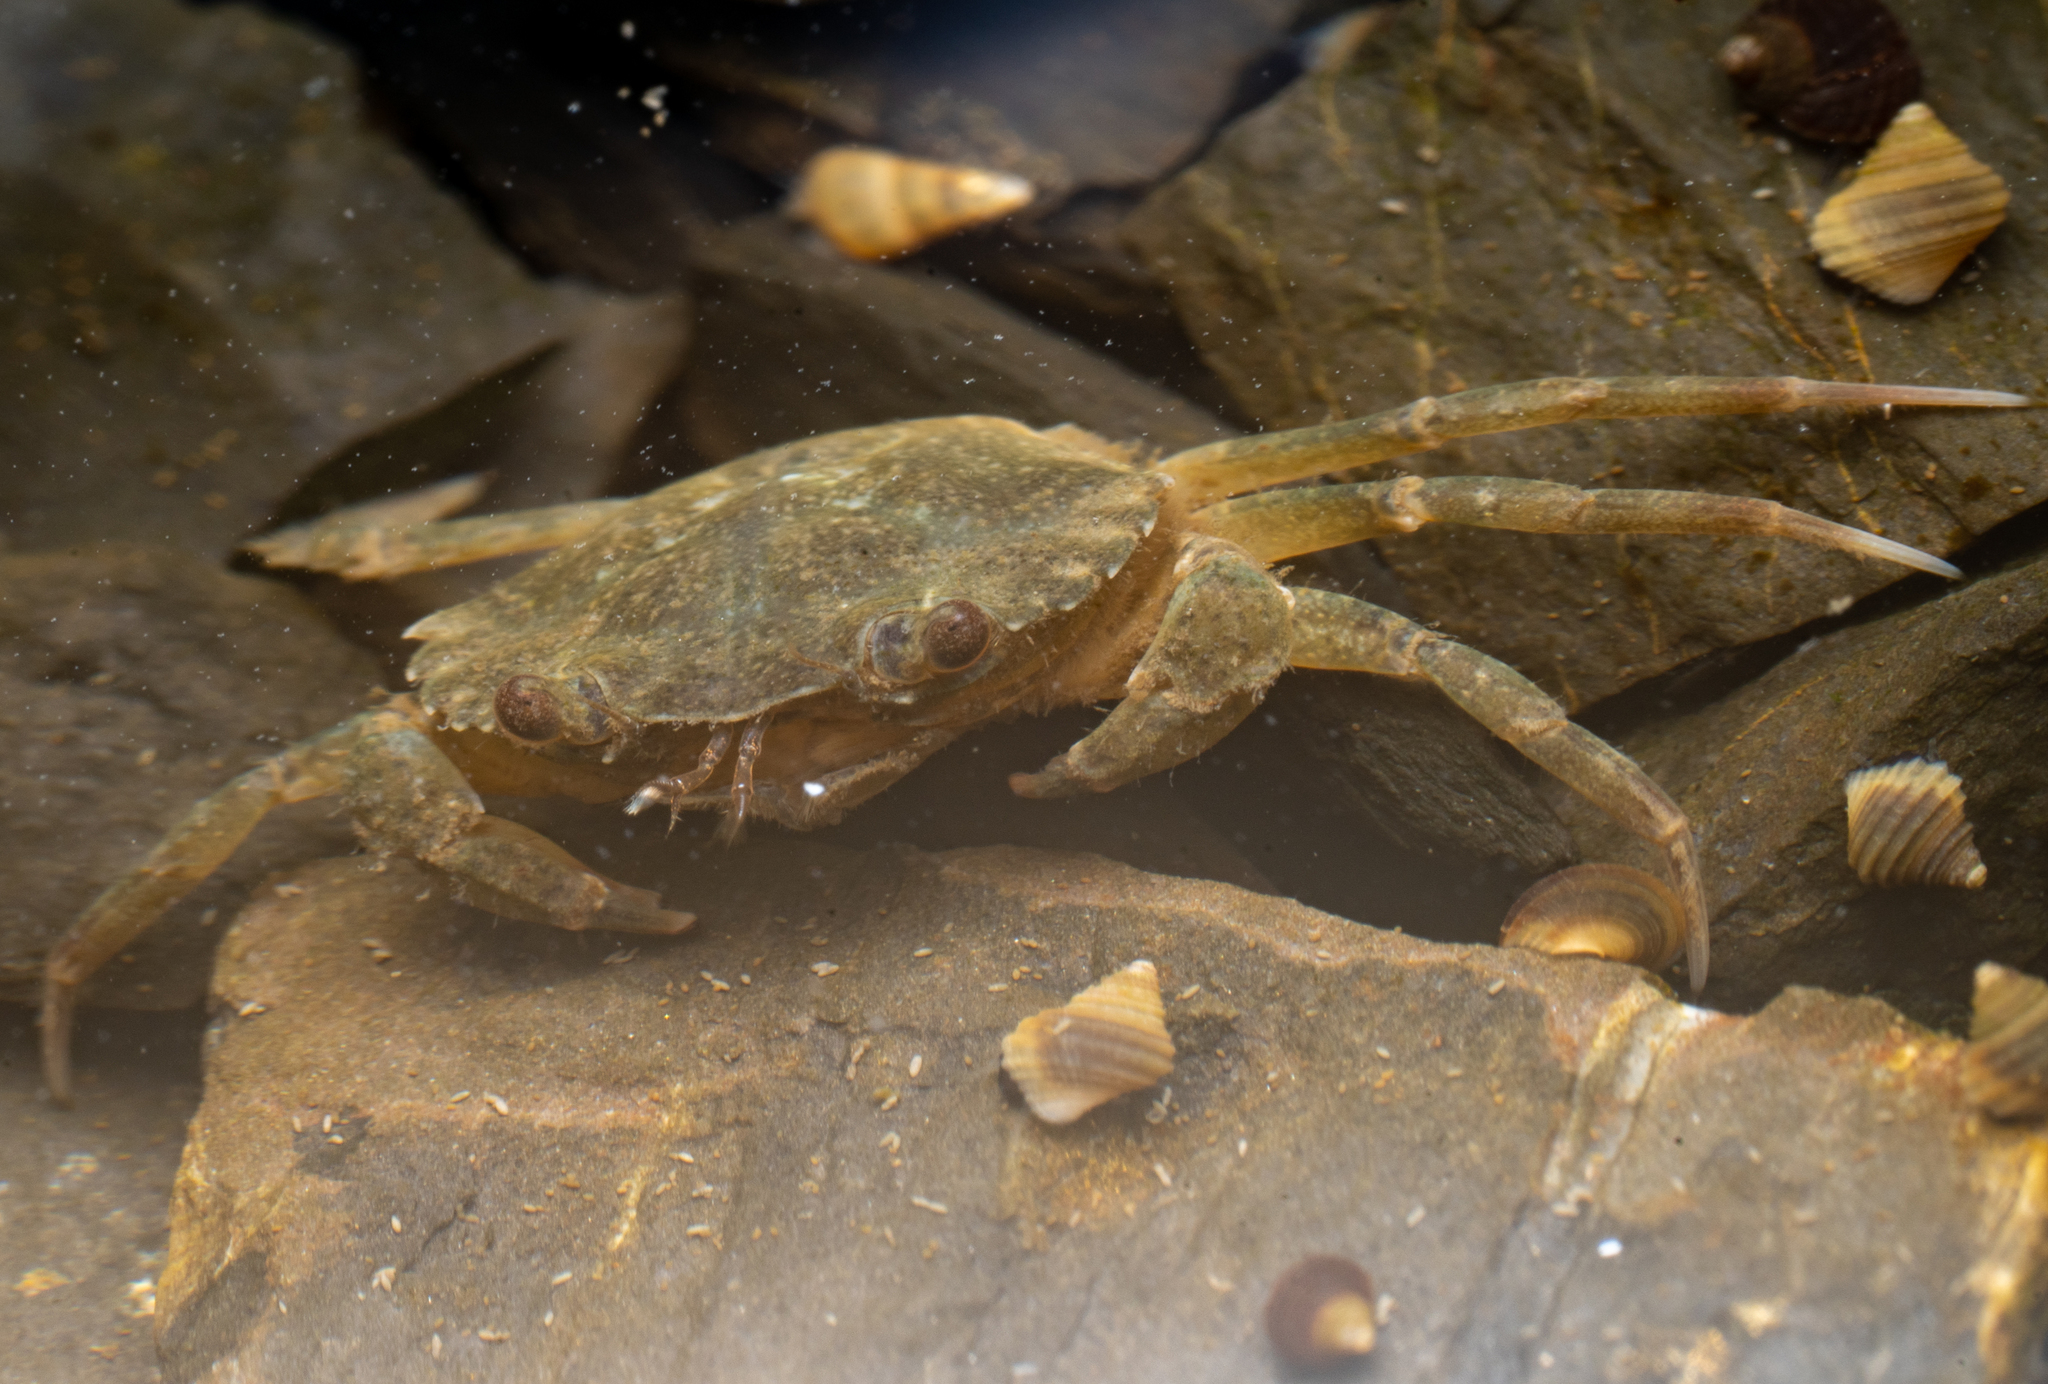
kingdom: Animalia
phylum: Arthropoda
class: Malacostraca
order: Decapoda
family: Carcinidae
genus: Carcinus
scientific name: Carcinus maenas
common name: European green crab
